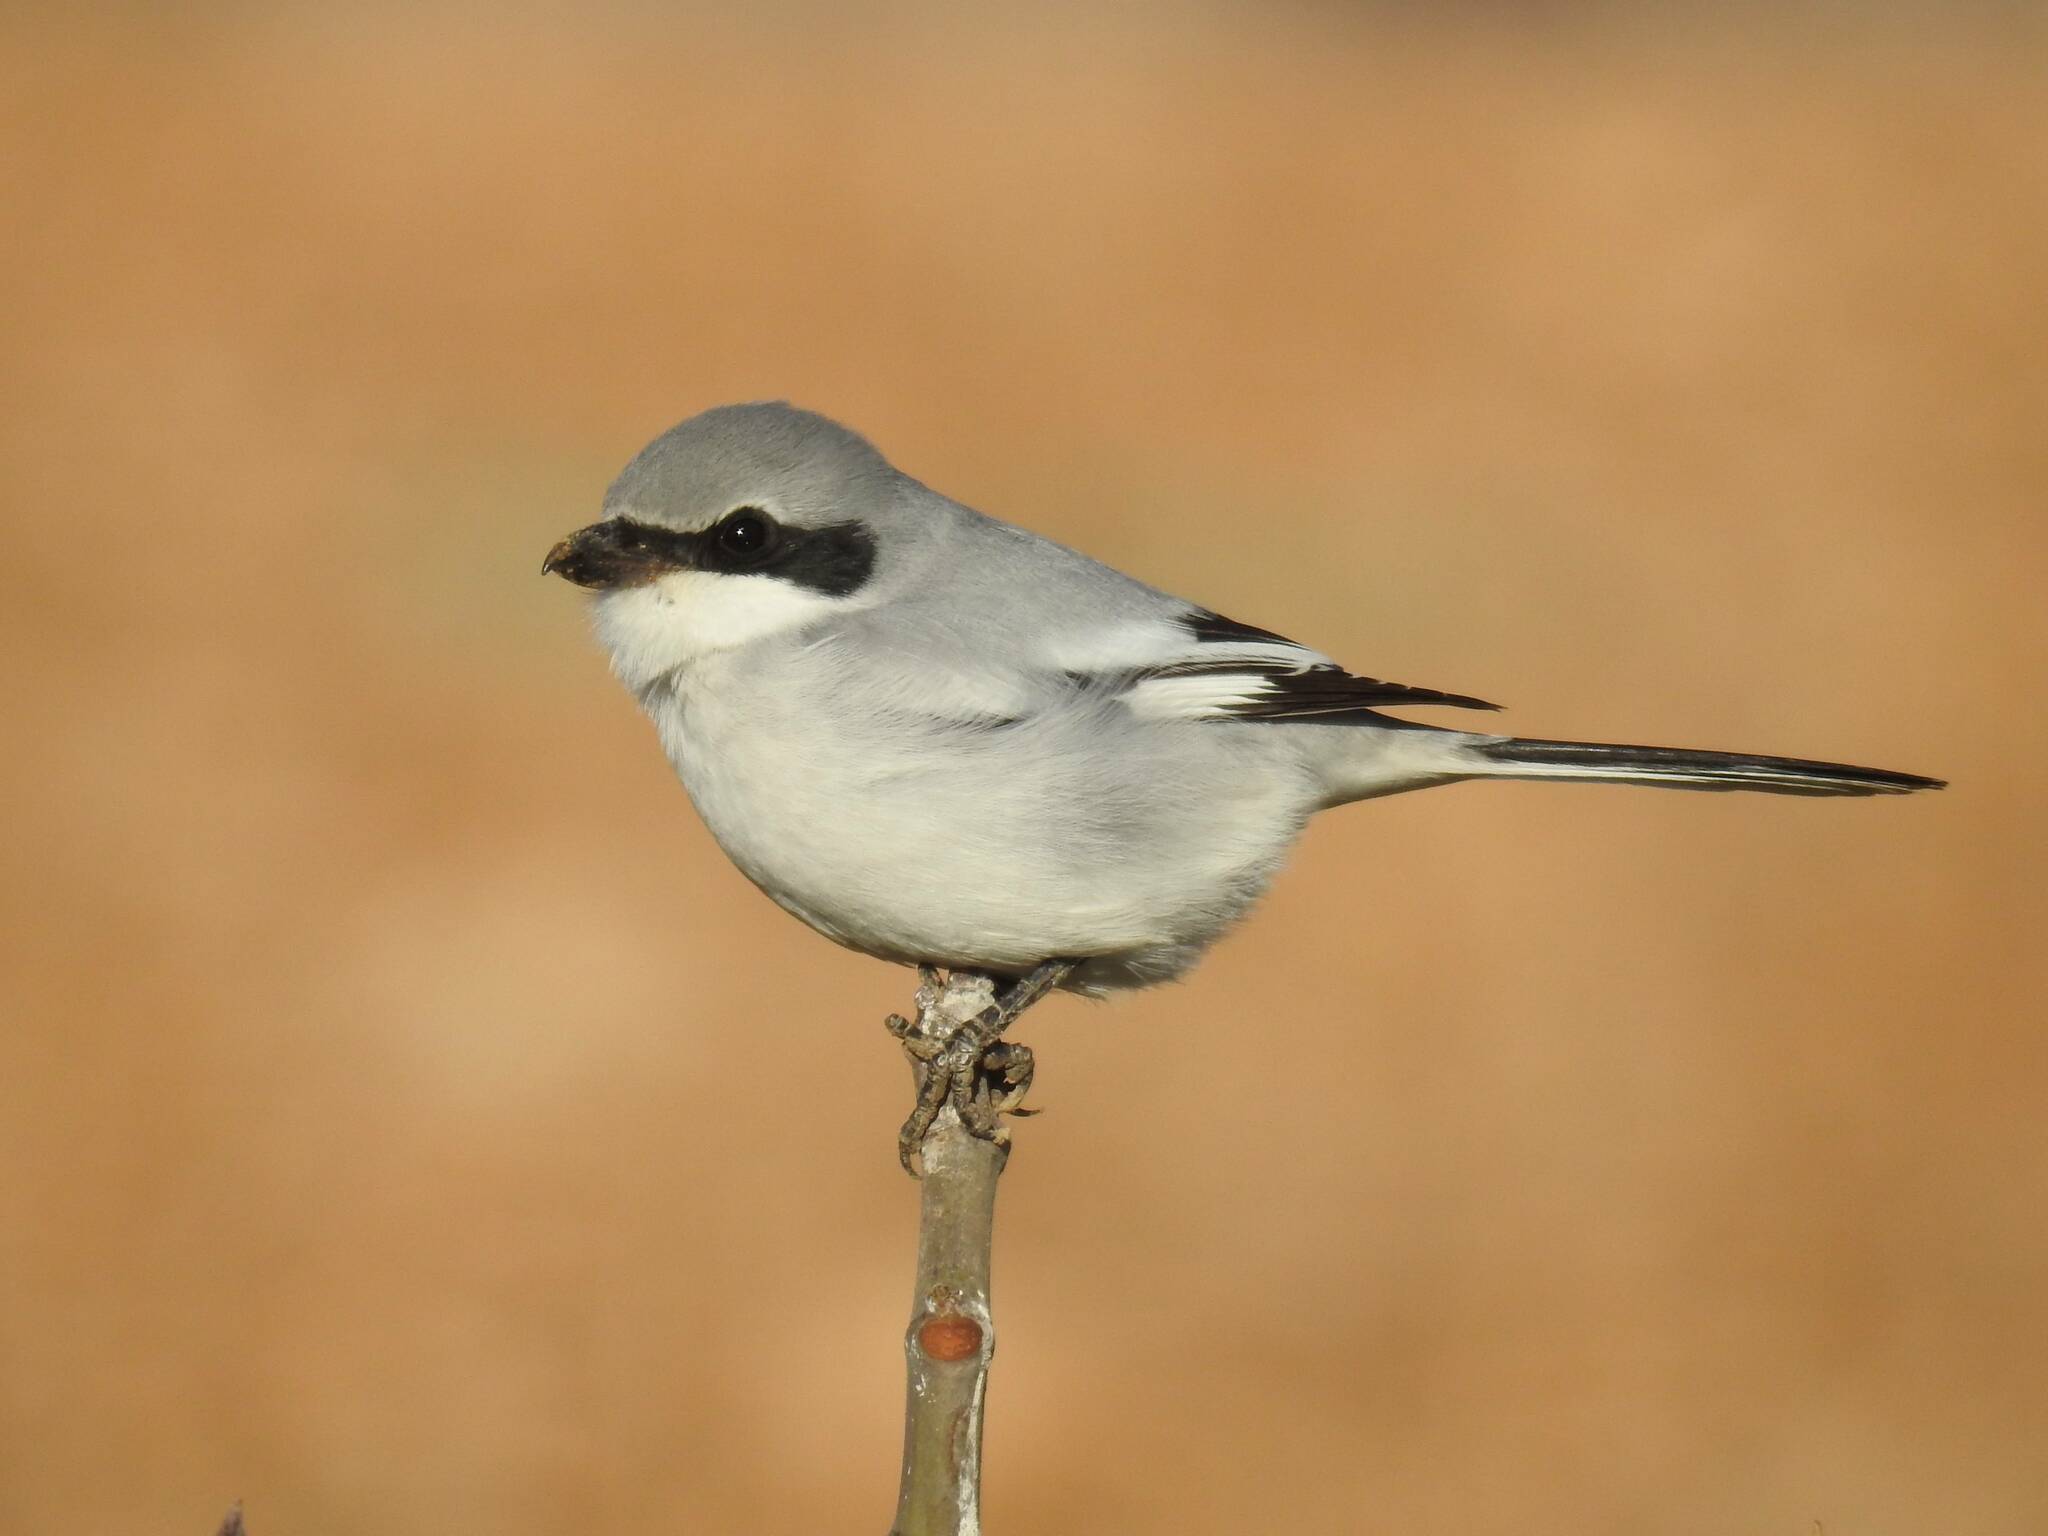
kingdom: Animalia
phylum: Chordata
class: Aves
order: Passeriformes
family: Laniidae
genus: Lanius
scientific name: Lanius excubitor
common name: Great grey shrike
